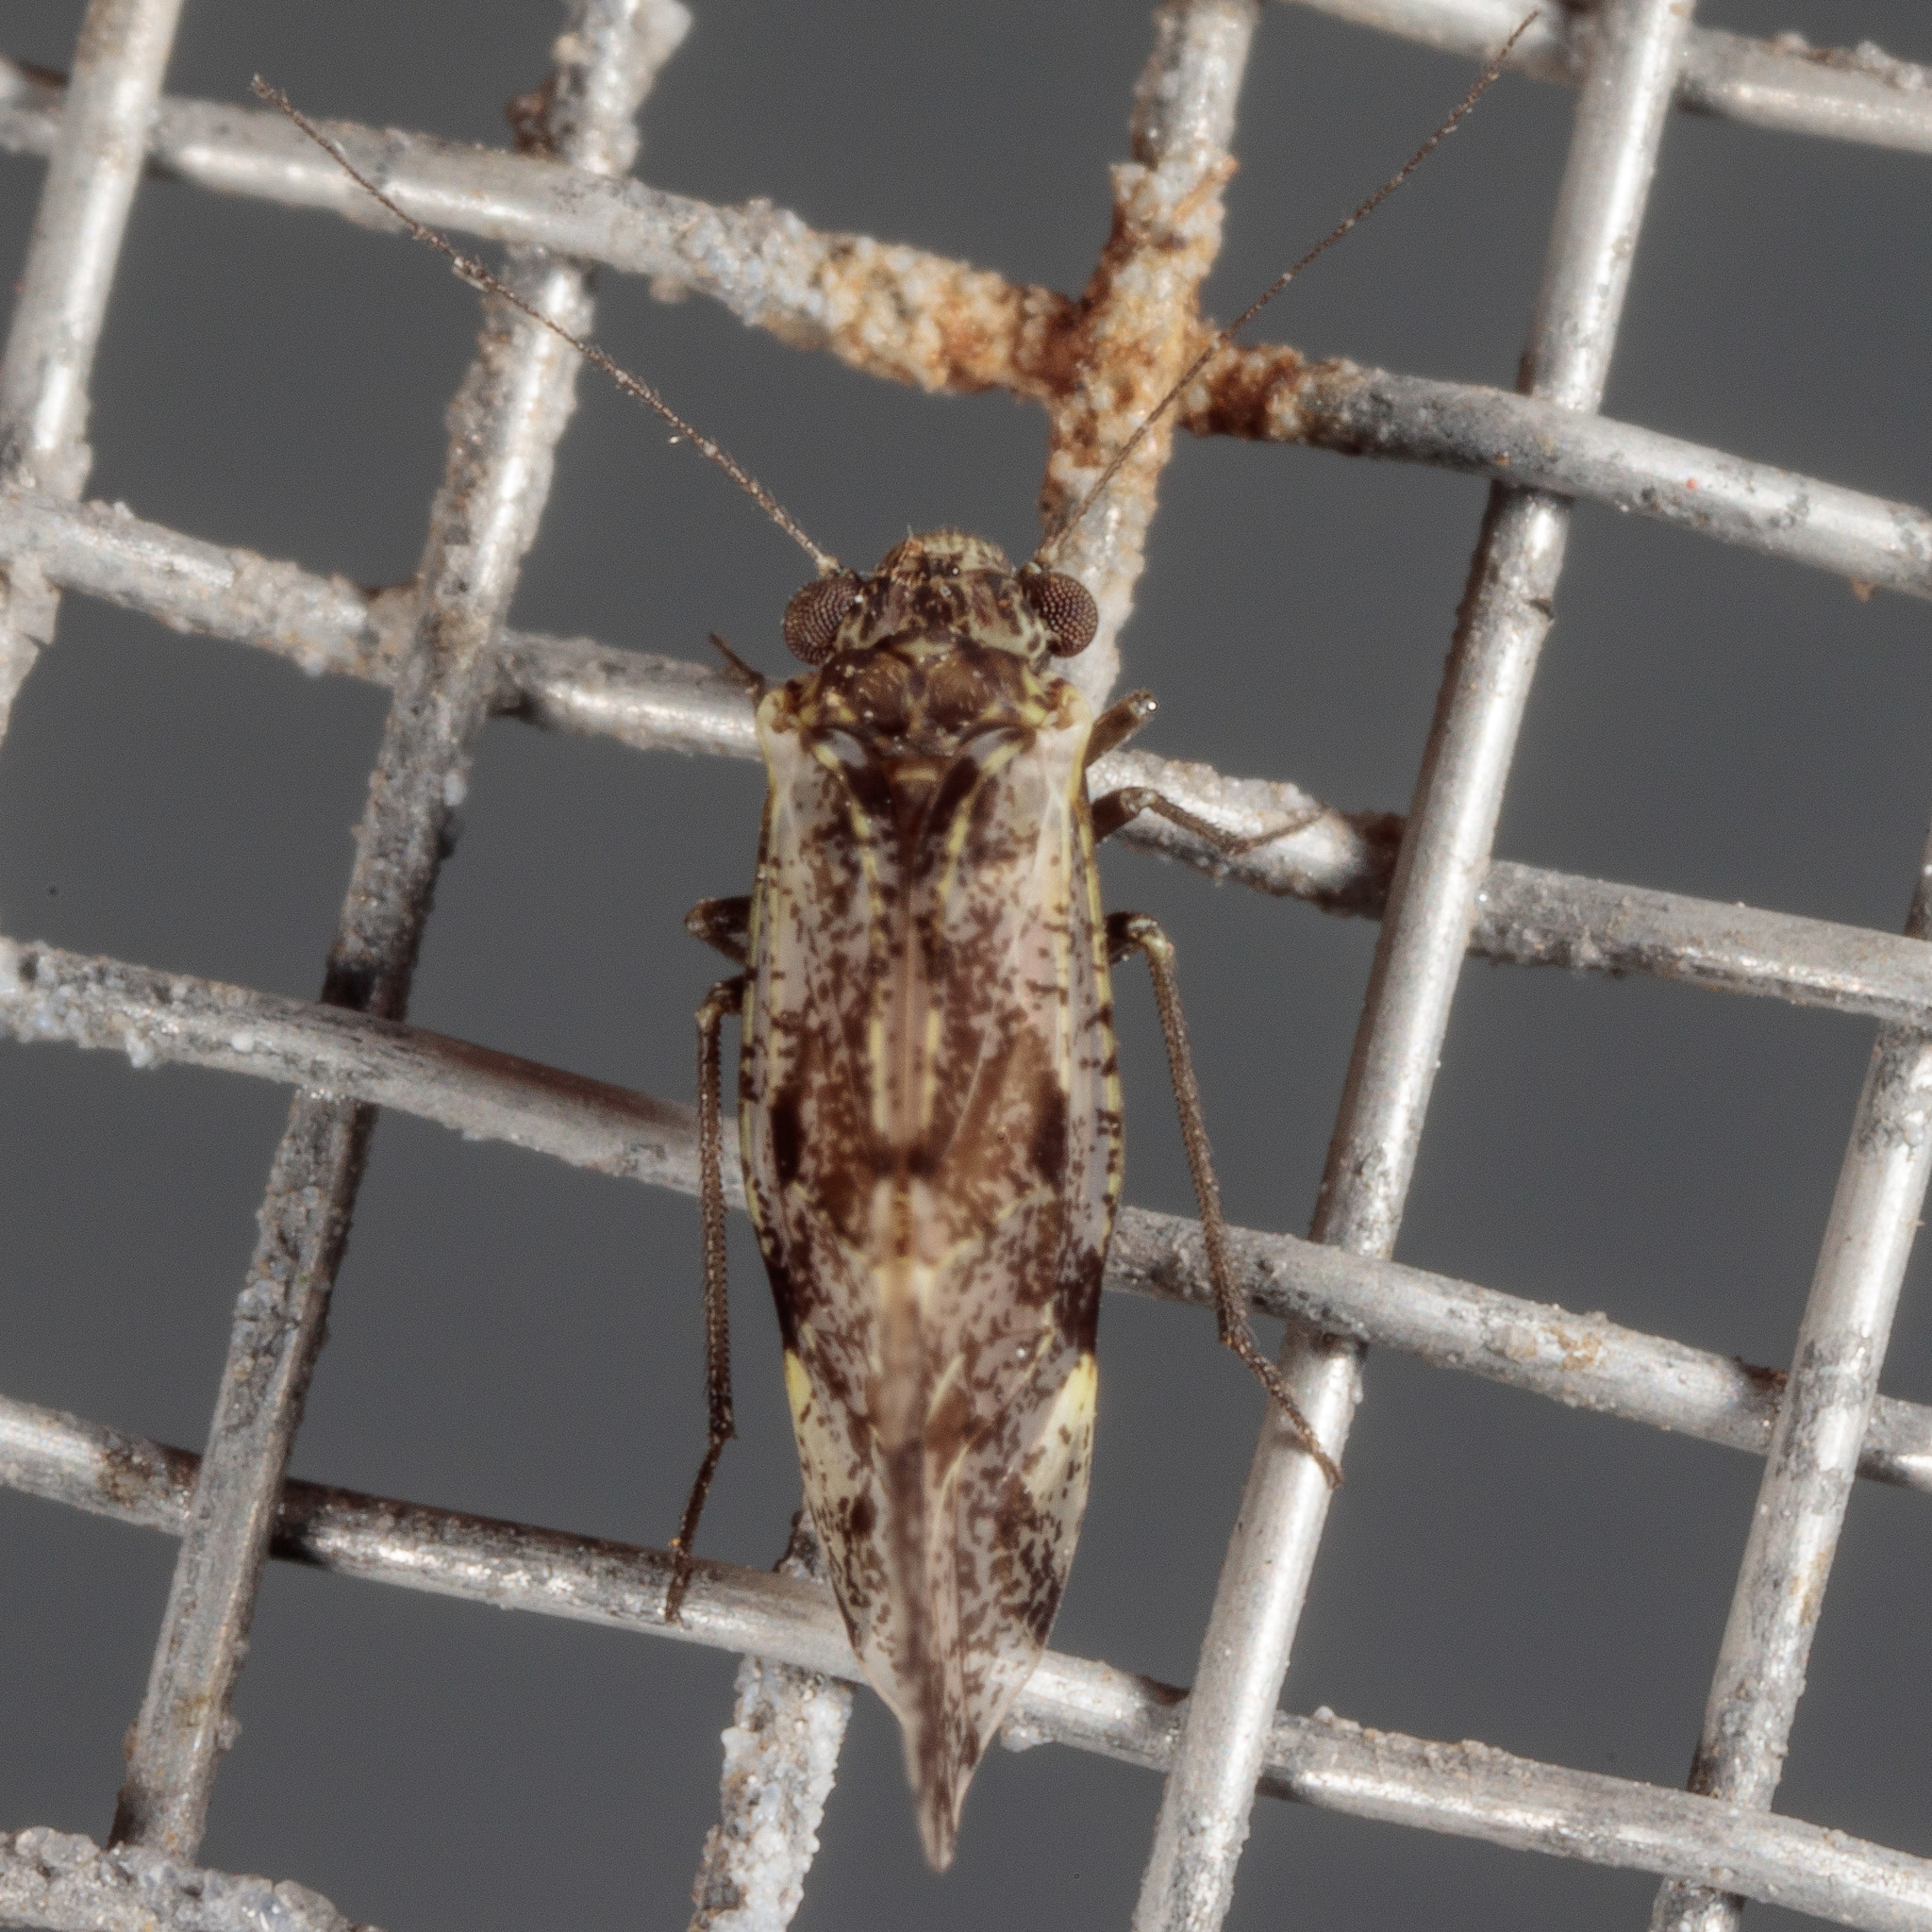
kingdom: Animalia
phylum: Arthropoda
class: Insecta
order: Psocodea
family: Psocidae
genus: Loensia
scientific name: Loensia moesta
